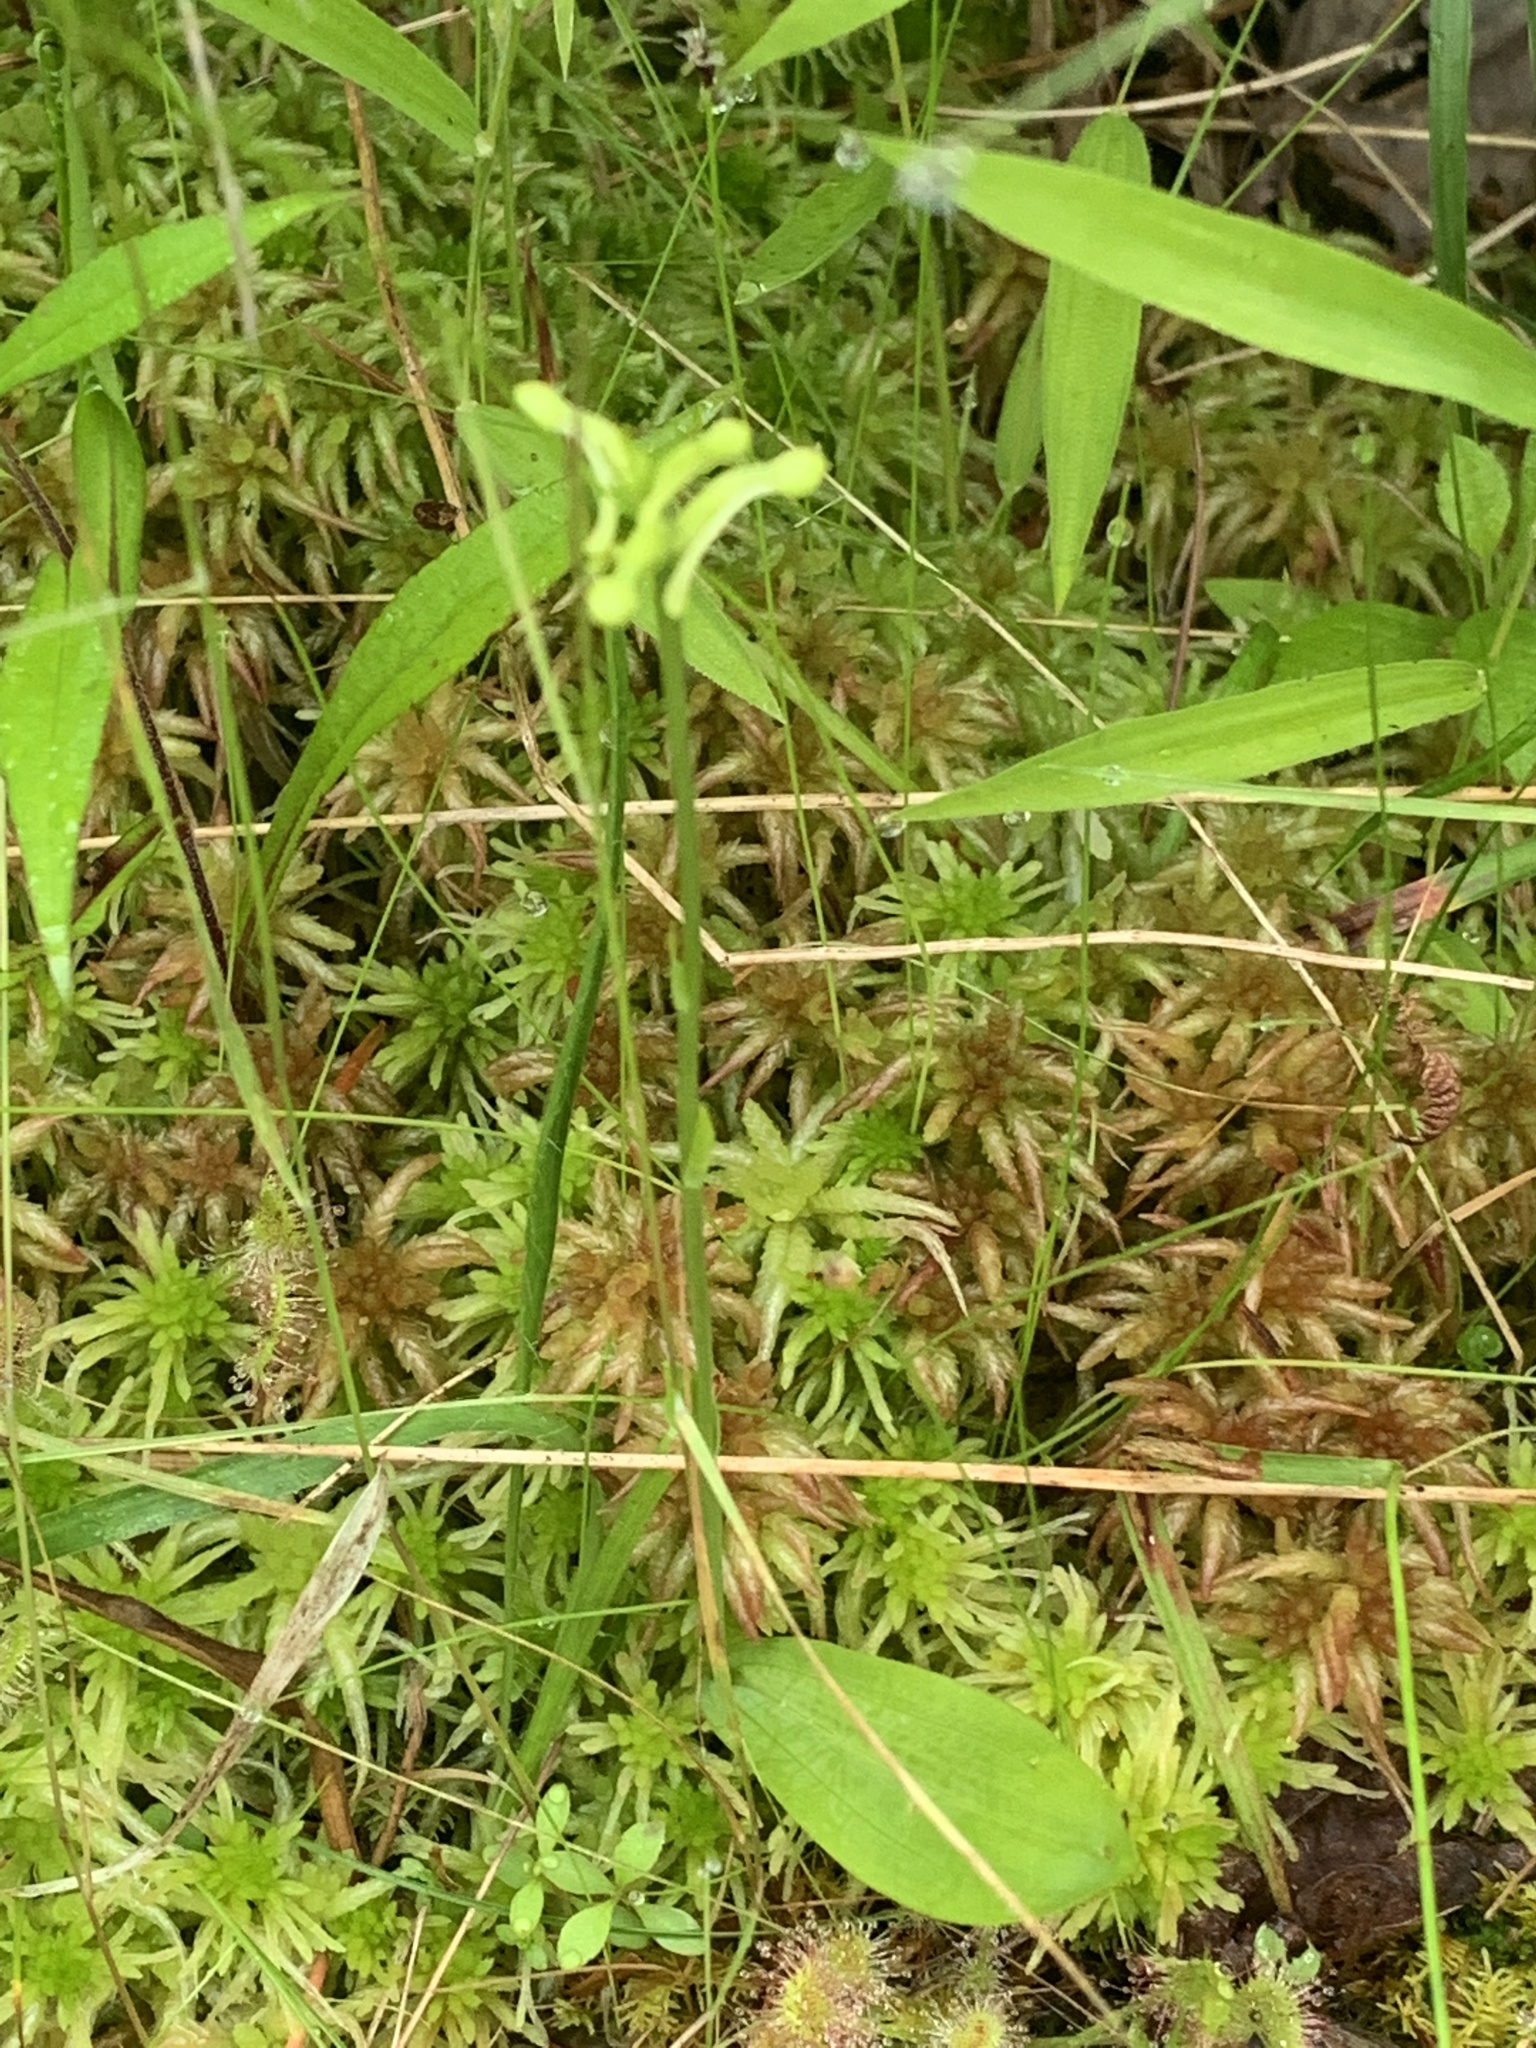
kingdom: Plantae
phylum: Tracheophyta
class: Liliopsida
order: Asparagales
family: Orchidaceae
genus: Platanthera
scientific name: Platanthera clavellata
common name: Club-spur orchid
